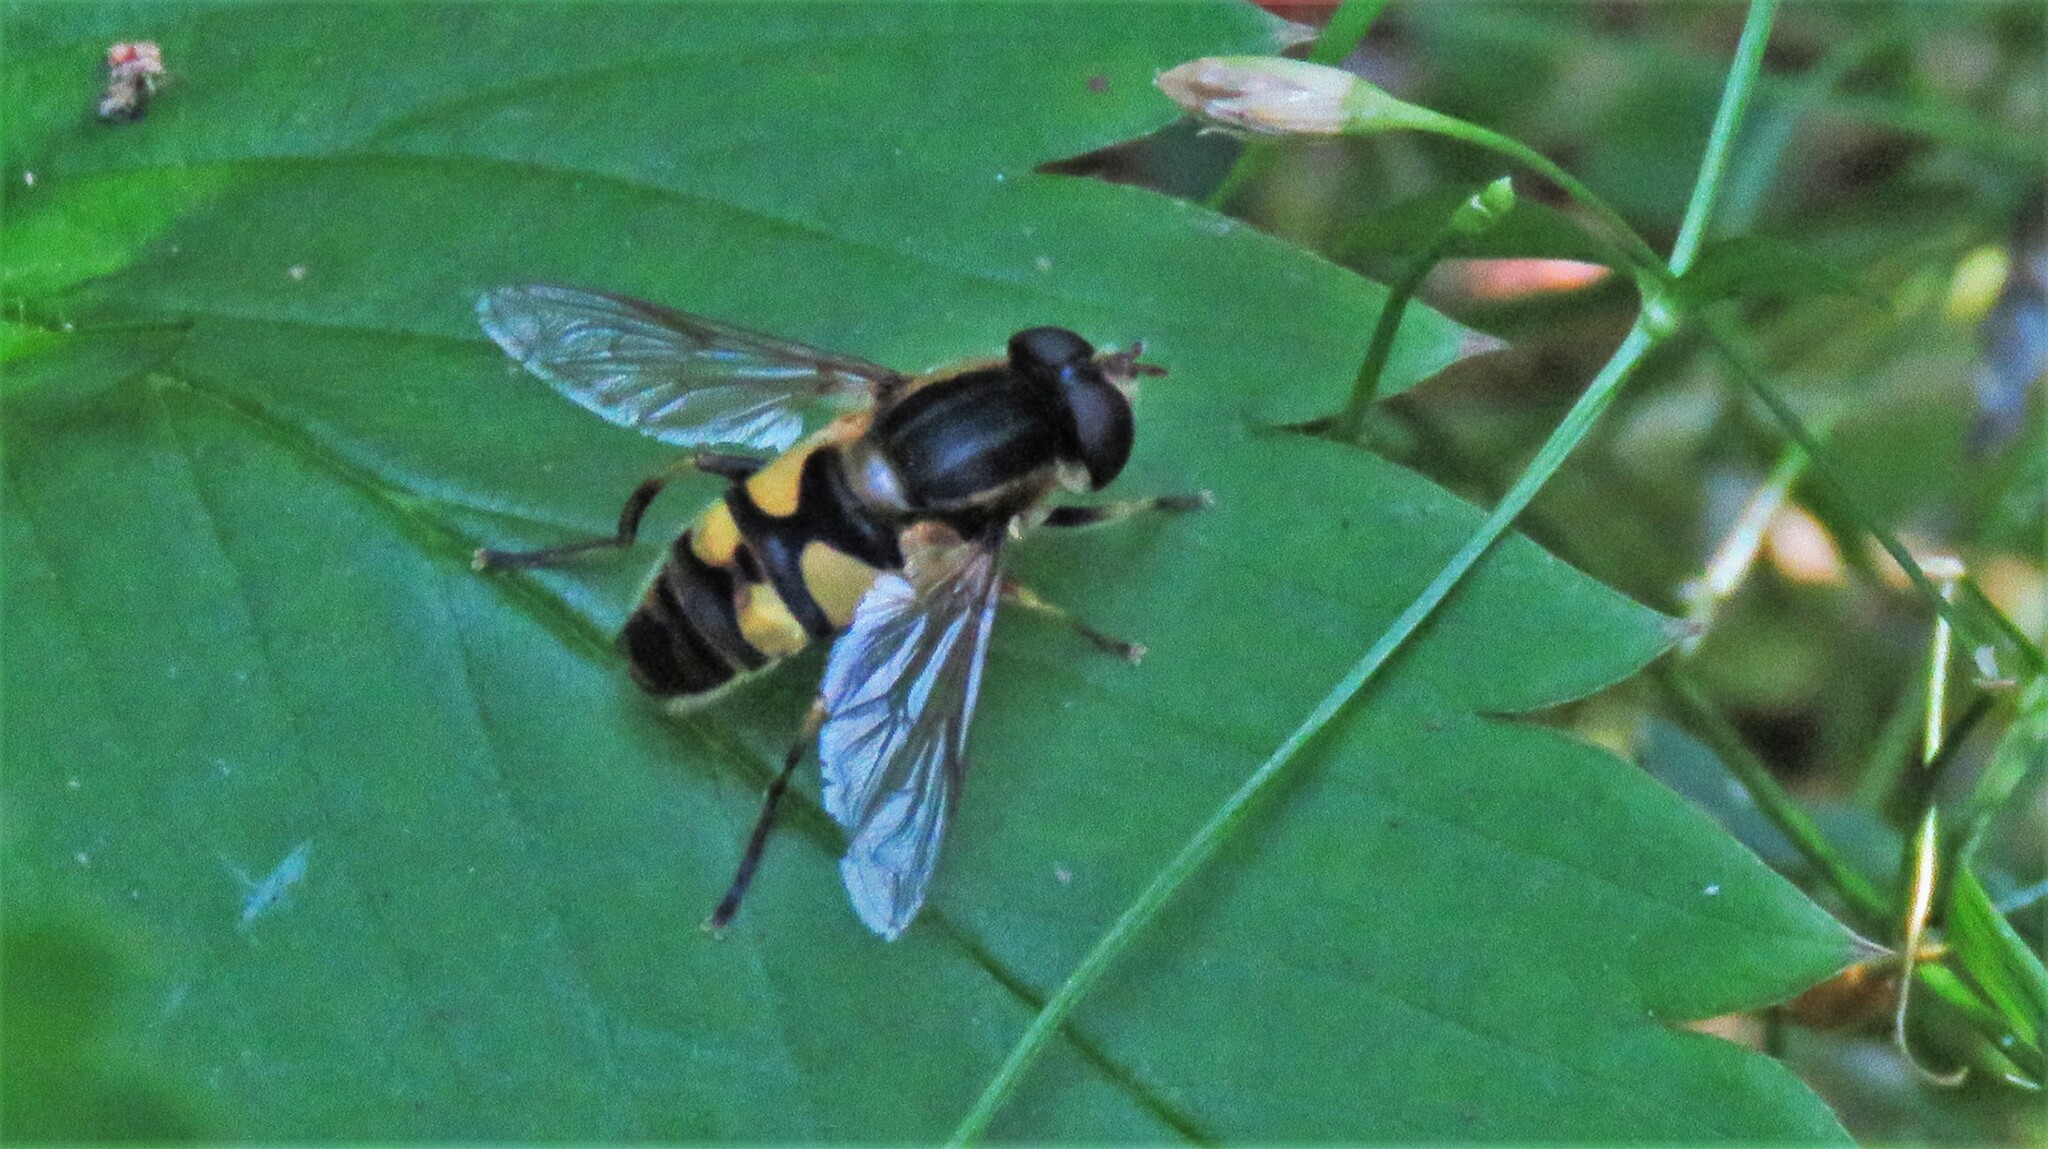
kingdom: Animalia
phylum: Arthropoda
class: Insecta
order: Diptera
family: Syrphidae
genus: Helophilus
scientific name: Helophilus fasciatus
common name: Narrow-headed marsh fly
